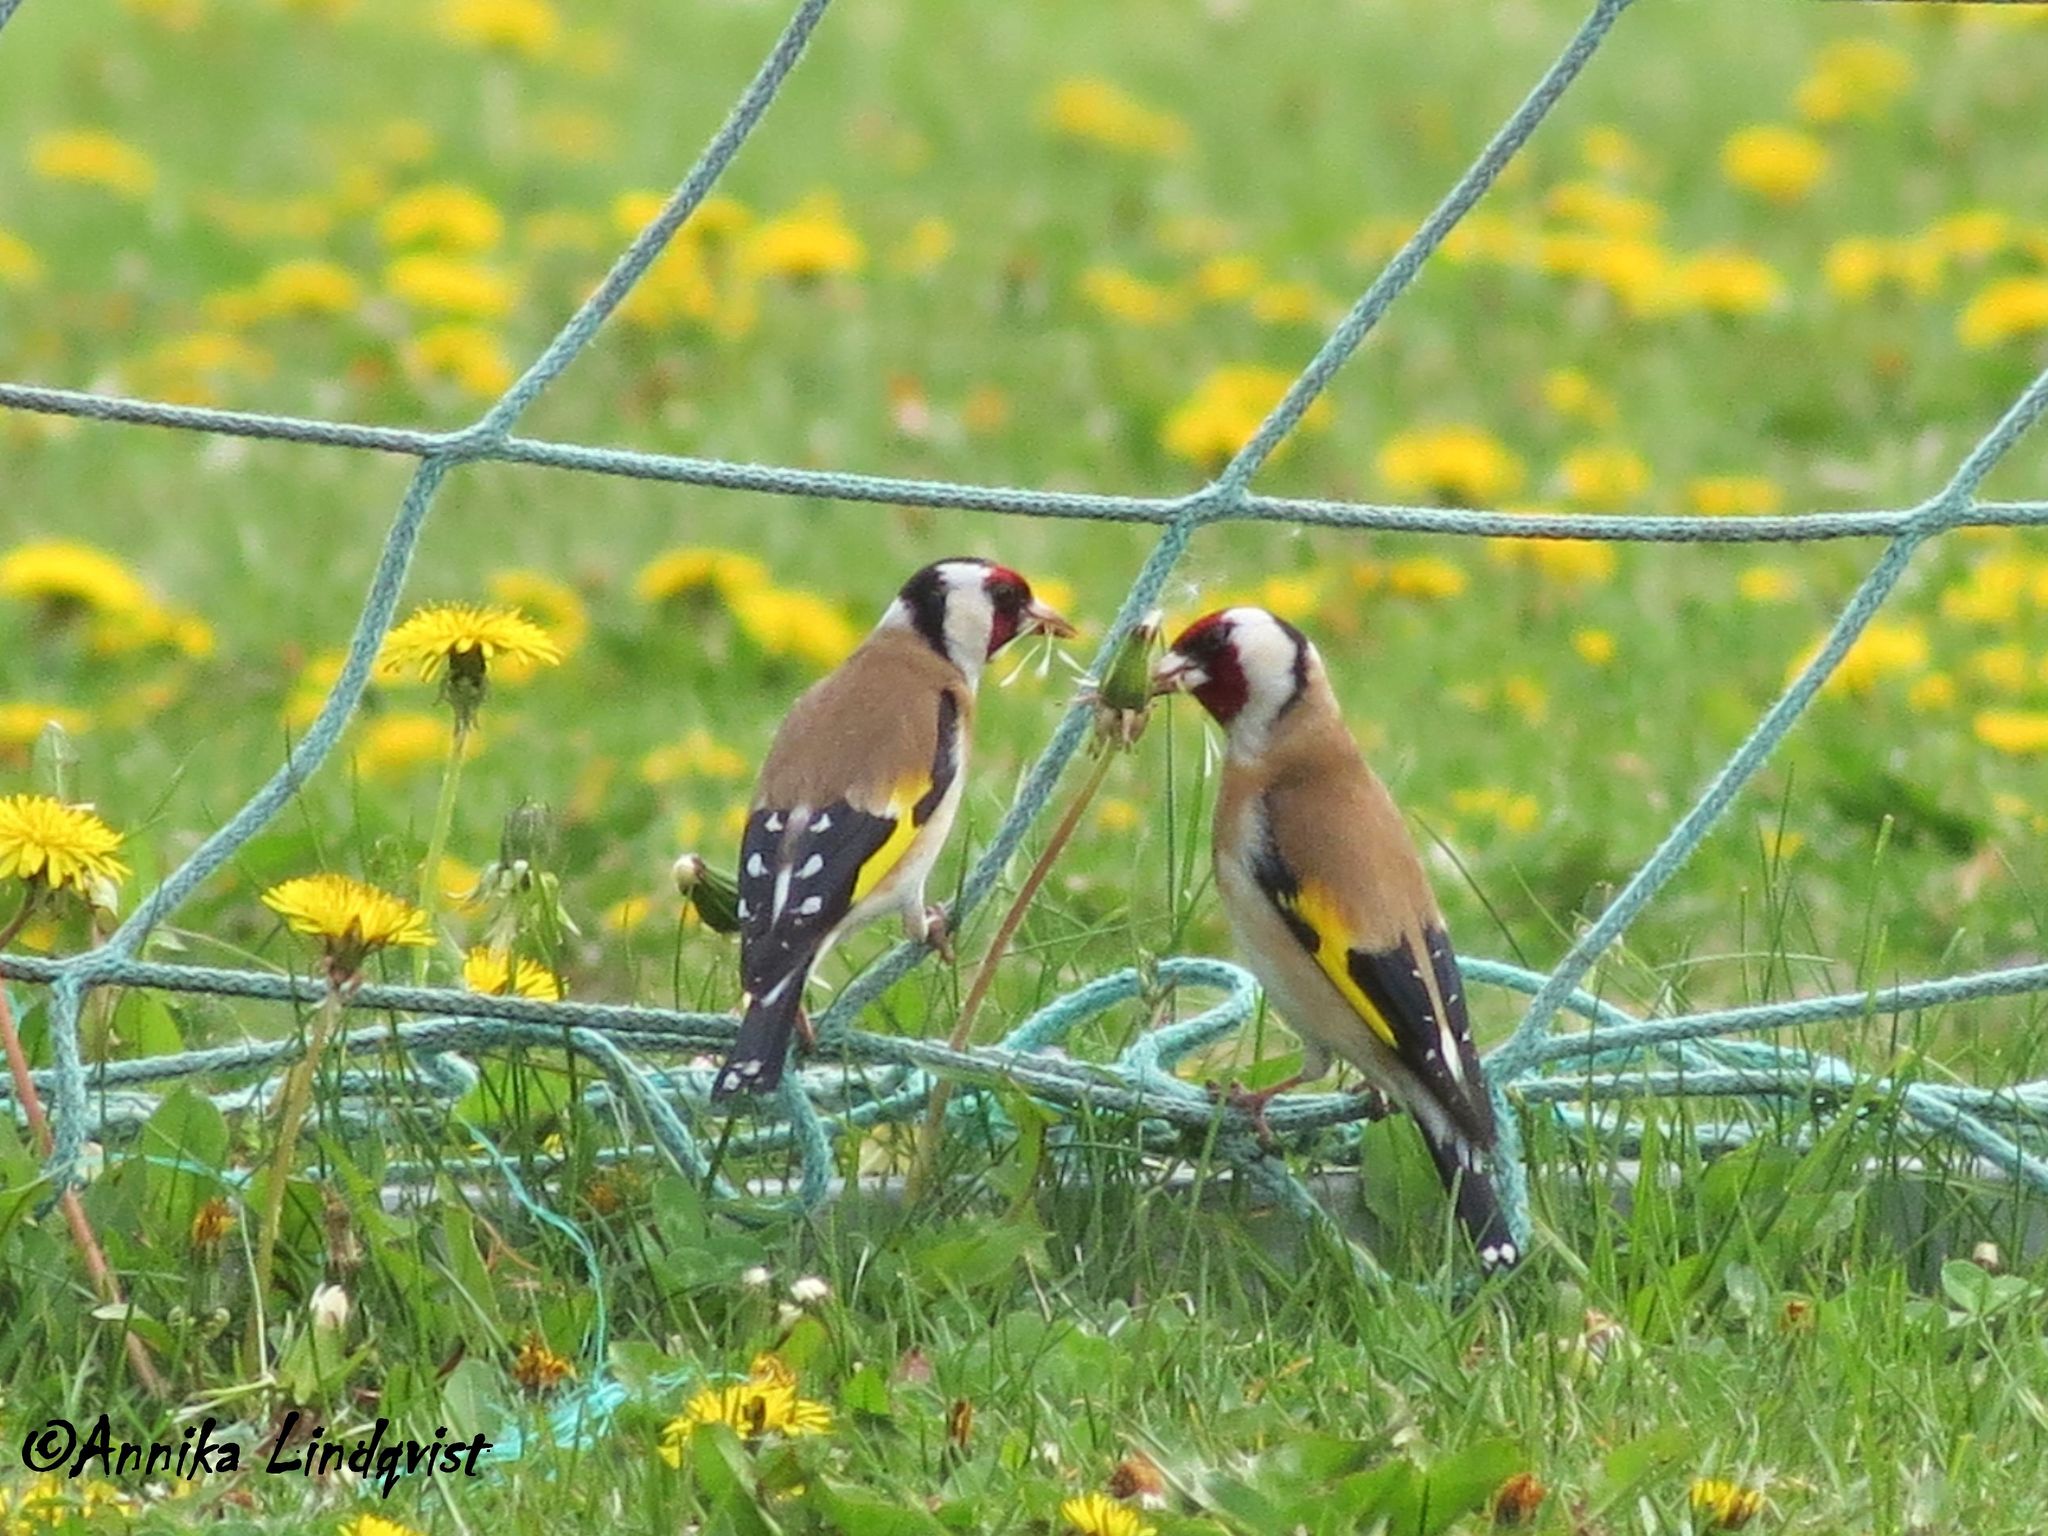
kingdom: Animalia
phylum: Chordata
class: Aves
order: Passeriformes
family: Fringillidae
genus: Carduelis
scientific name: Carduelis carduelis
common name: European goldfinch
